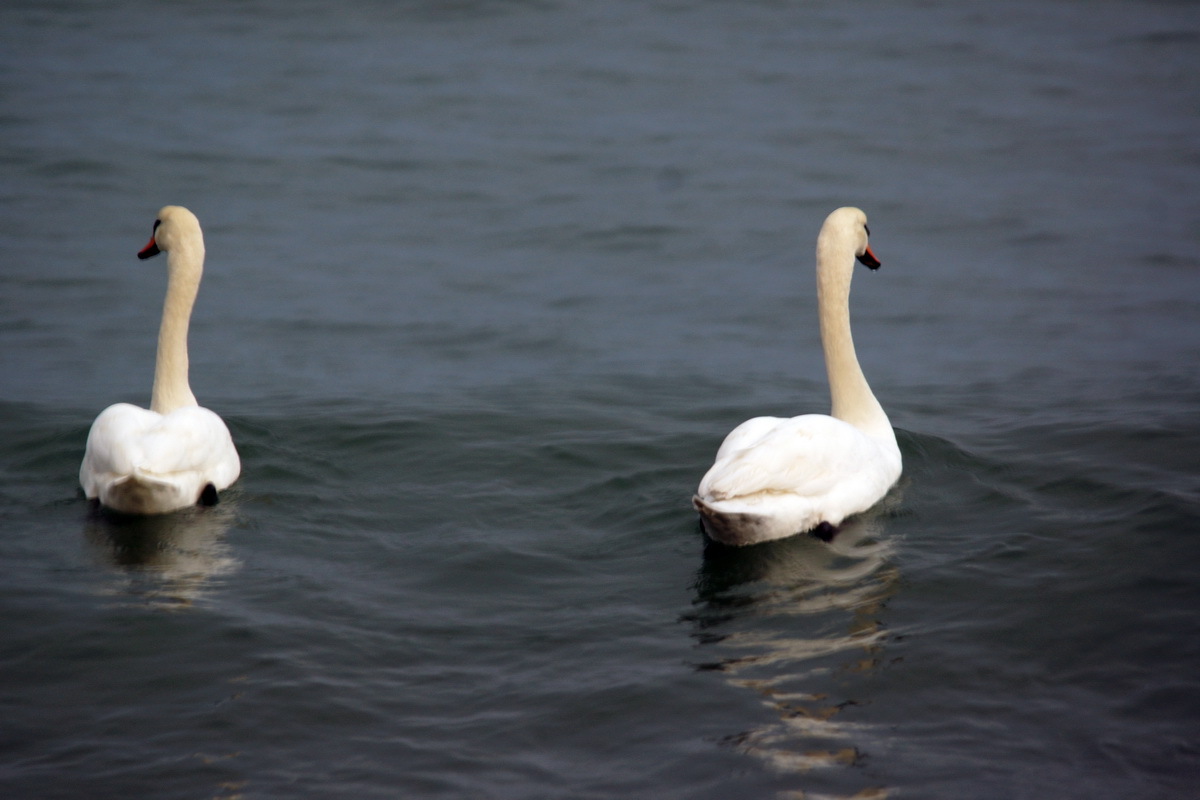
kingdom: Animalia
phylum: Chordata
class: Aves
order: Anseriformes
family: Anatidae
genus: Cygnus
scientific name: Cygnus olor
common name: Mute swan
